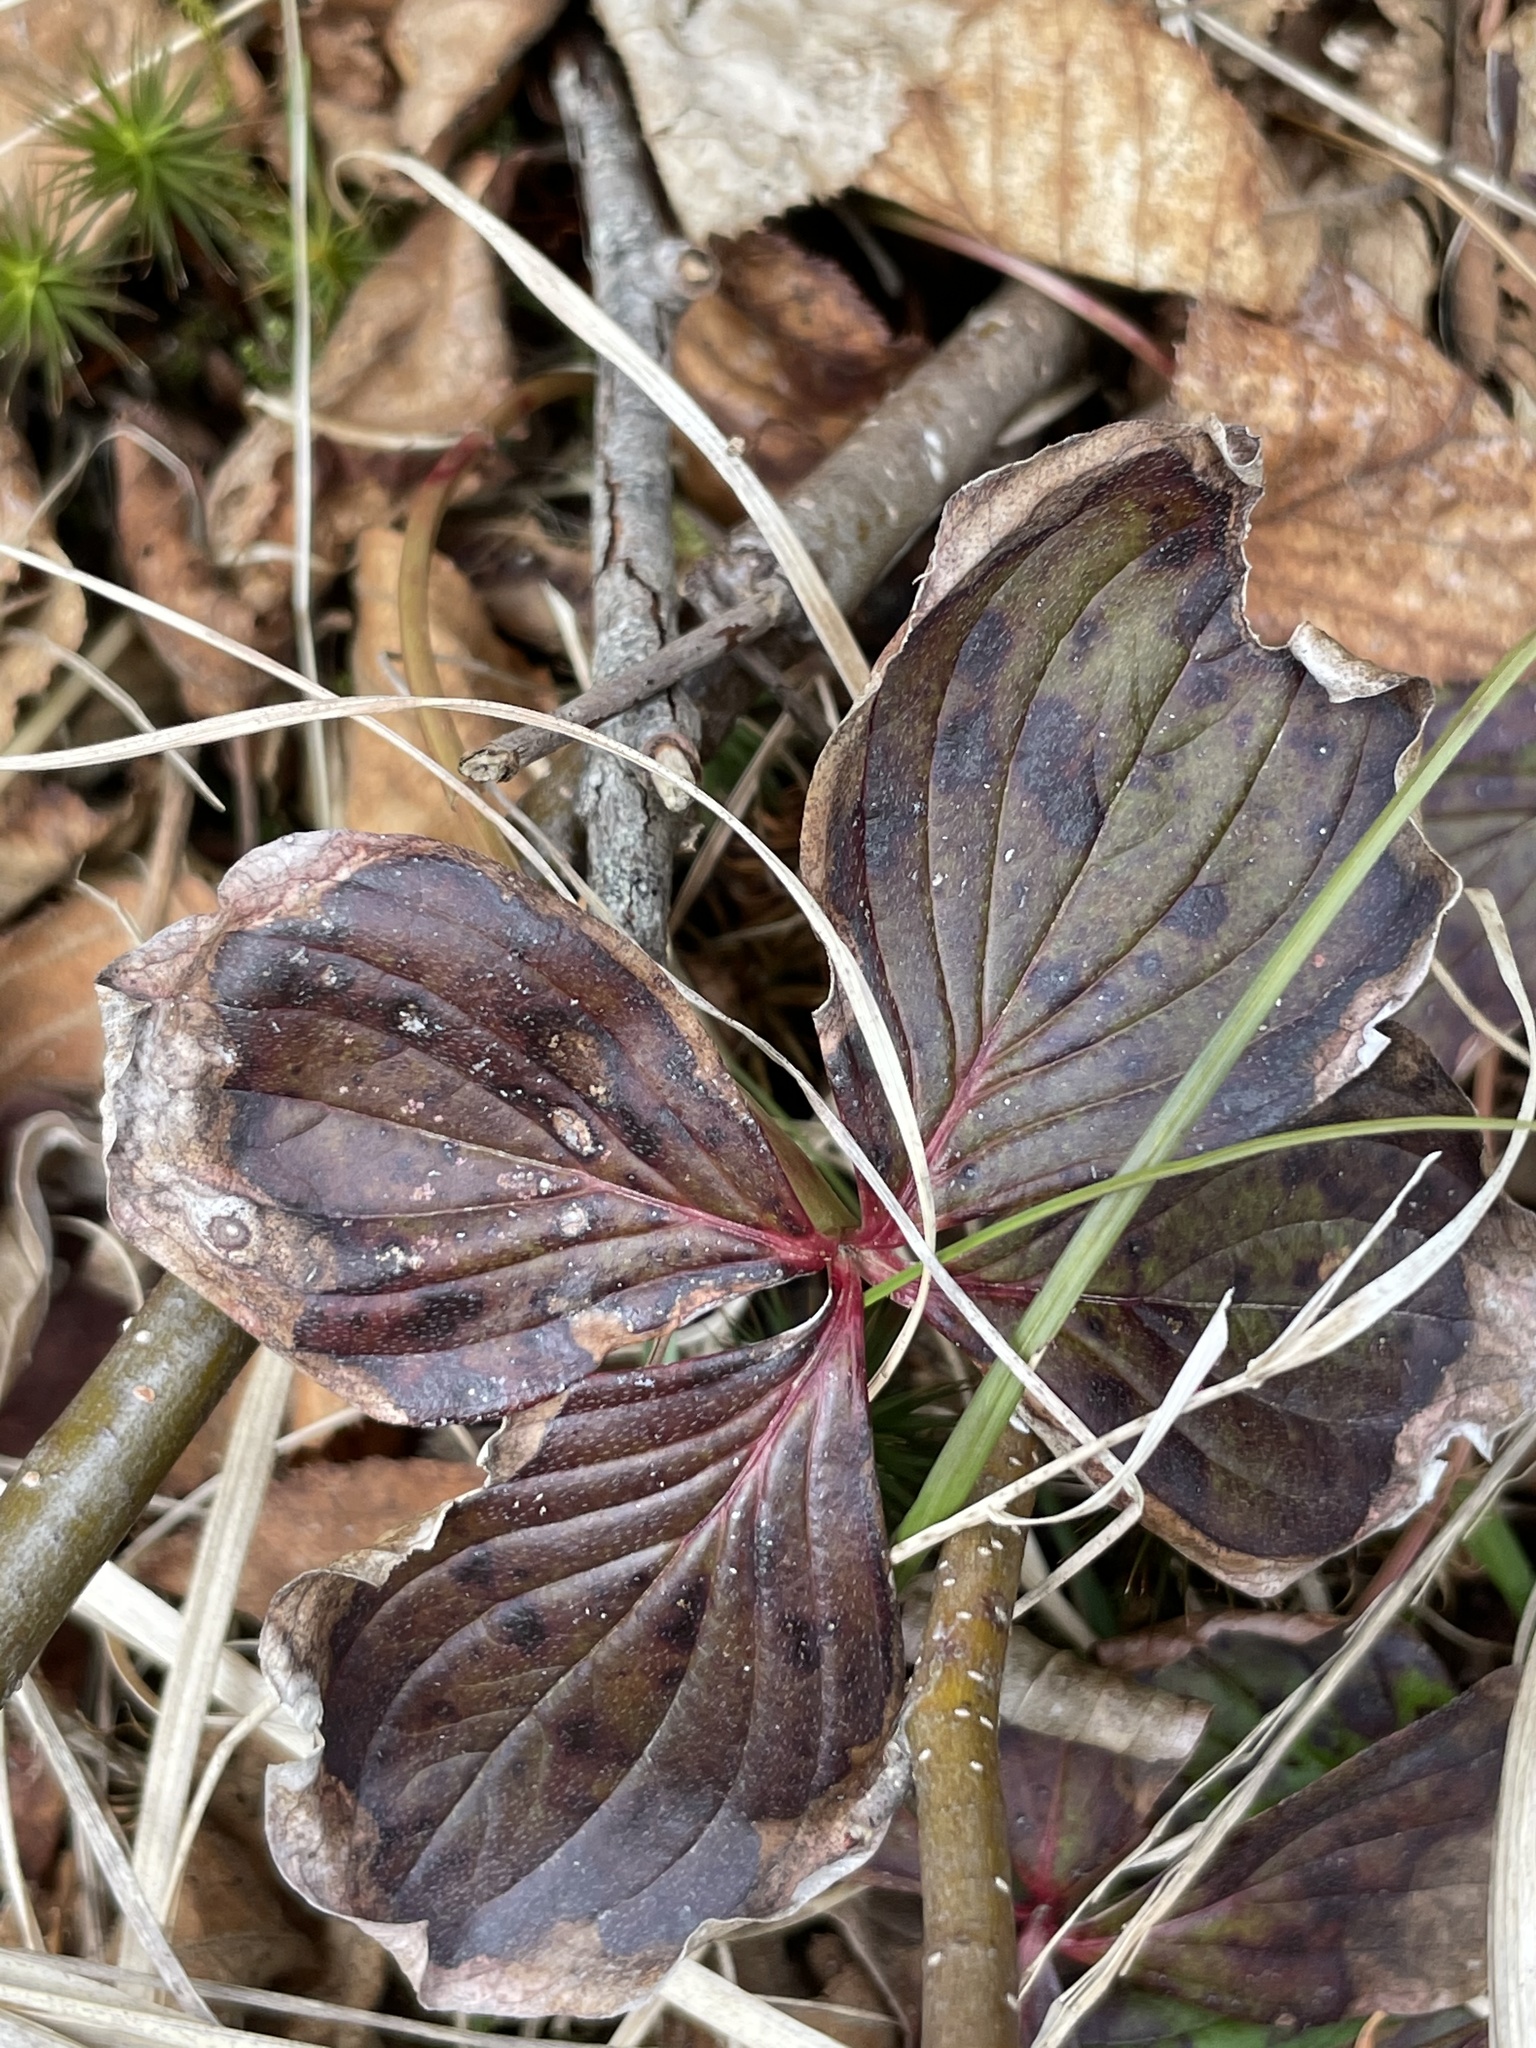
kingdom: Plantae
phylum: Tracheophyta
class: Magnoliopsida
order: Cornales
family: Cornaceae
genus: Cornus
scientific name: Cornus canadensis
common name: Creeping dogwood
